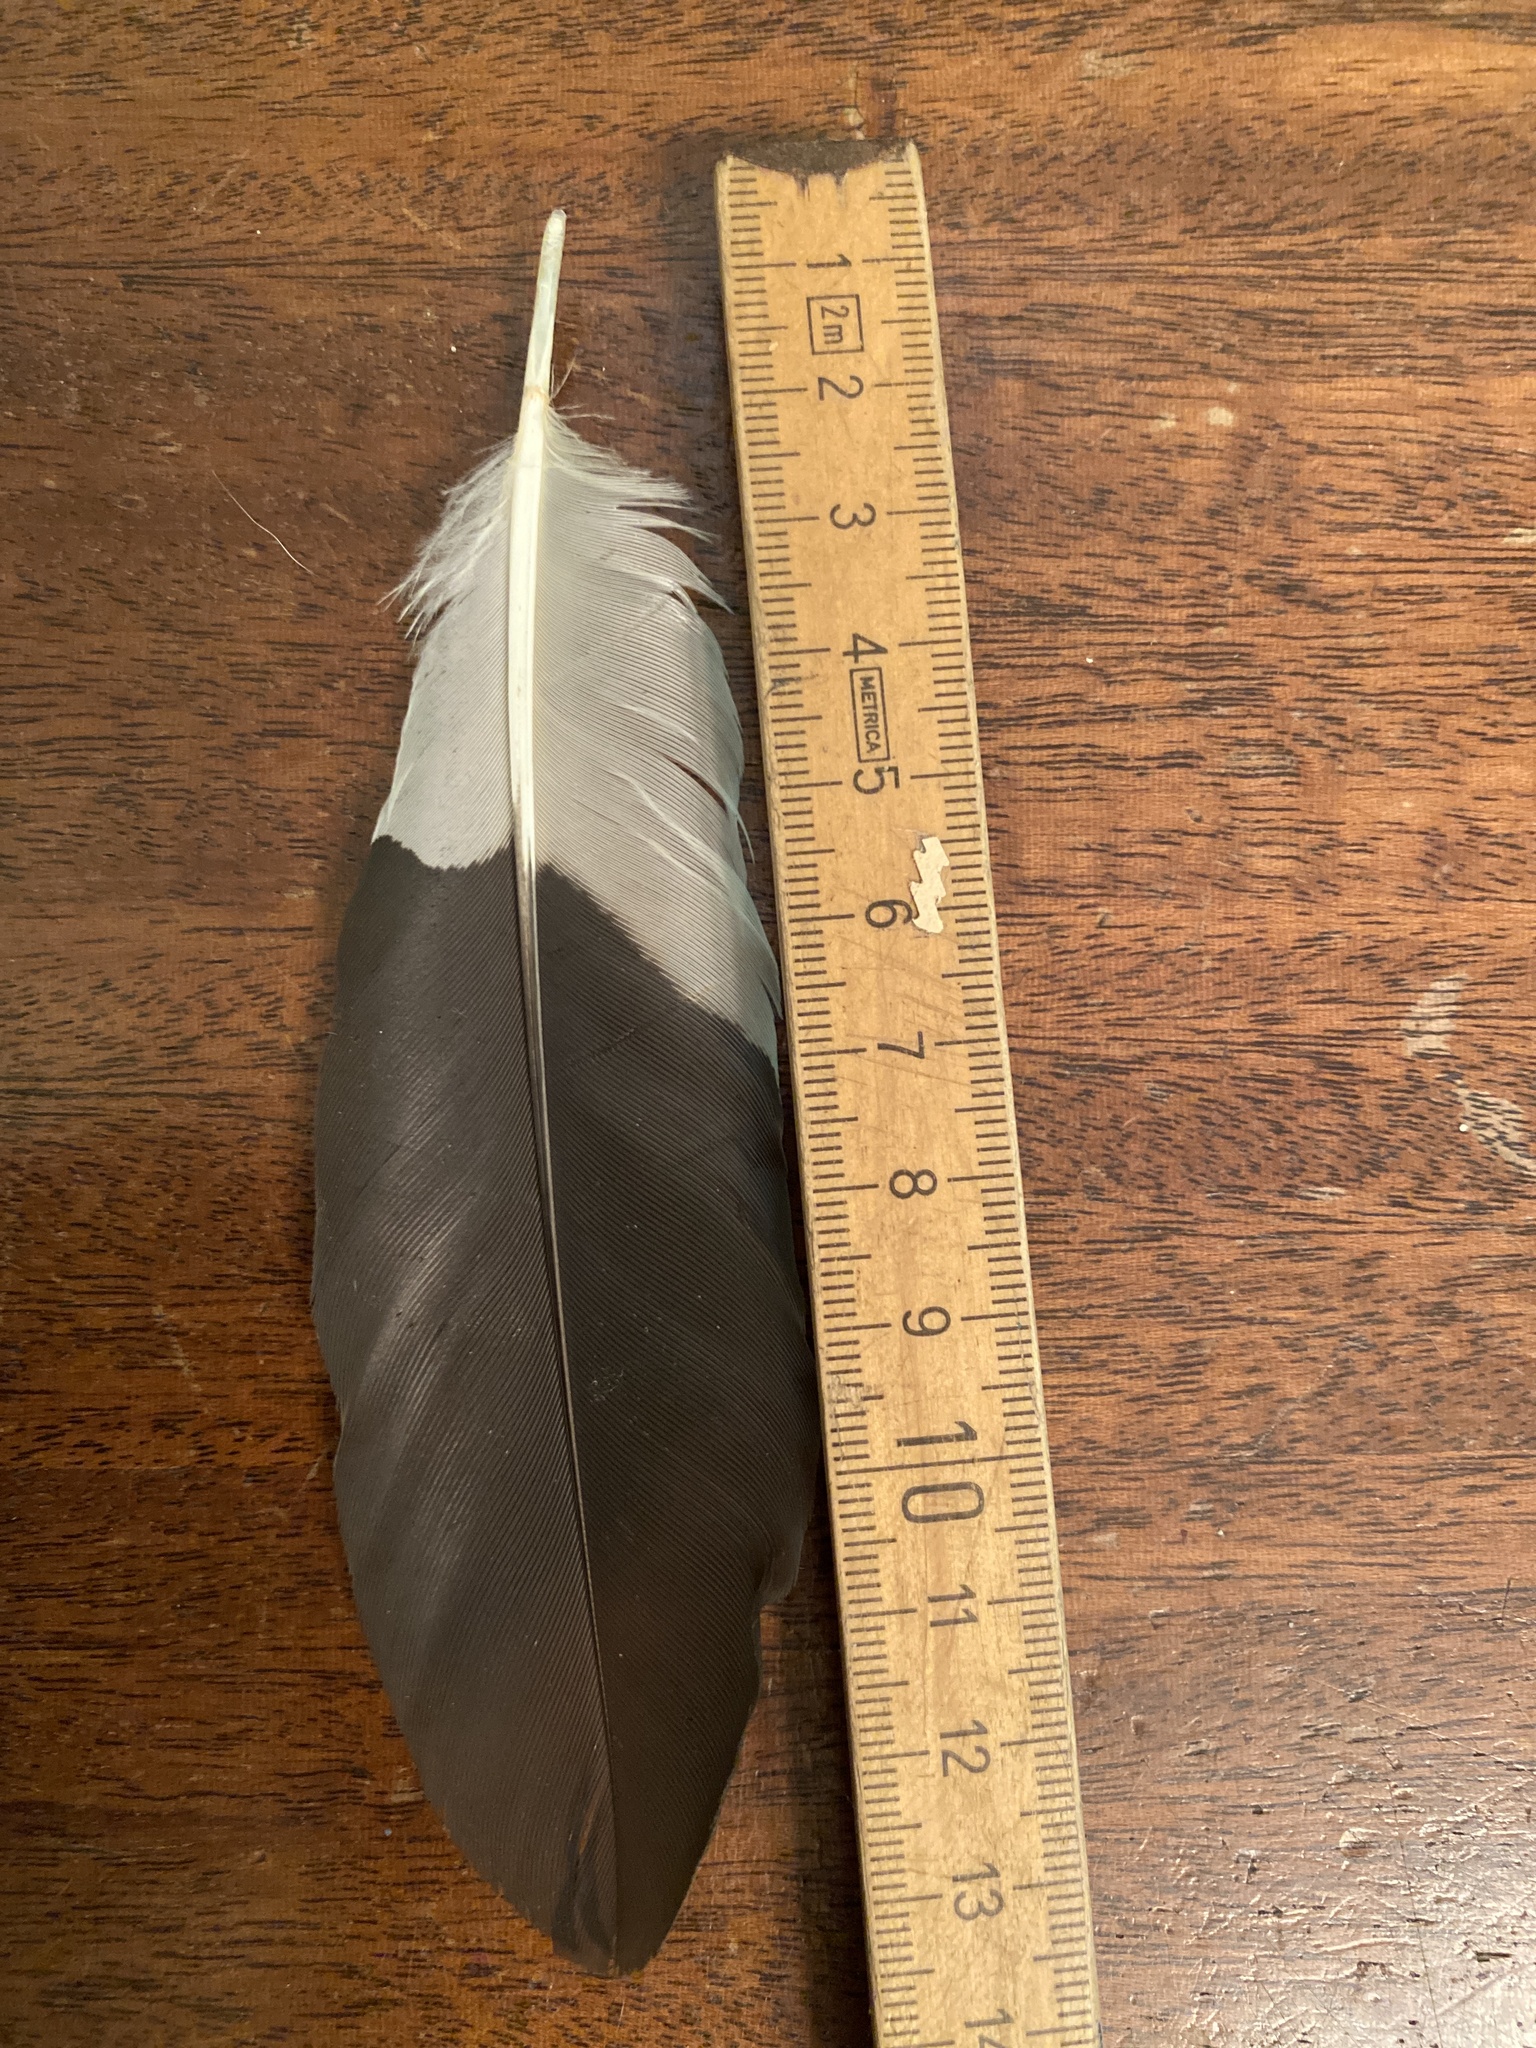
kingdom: Animalia
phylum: Chordata
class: Aves
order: Piciformes
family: Picidae
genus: Dryocopus
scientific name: Dryocopus pileatus
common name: Pileated woodpecker
